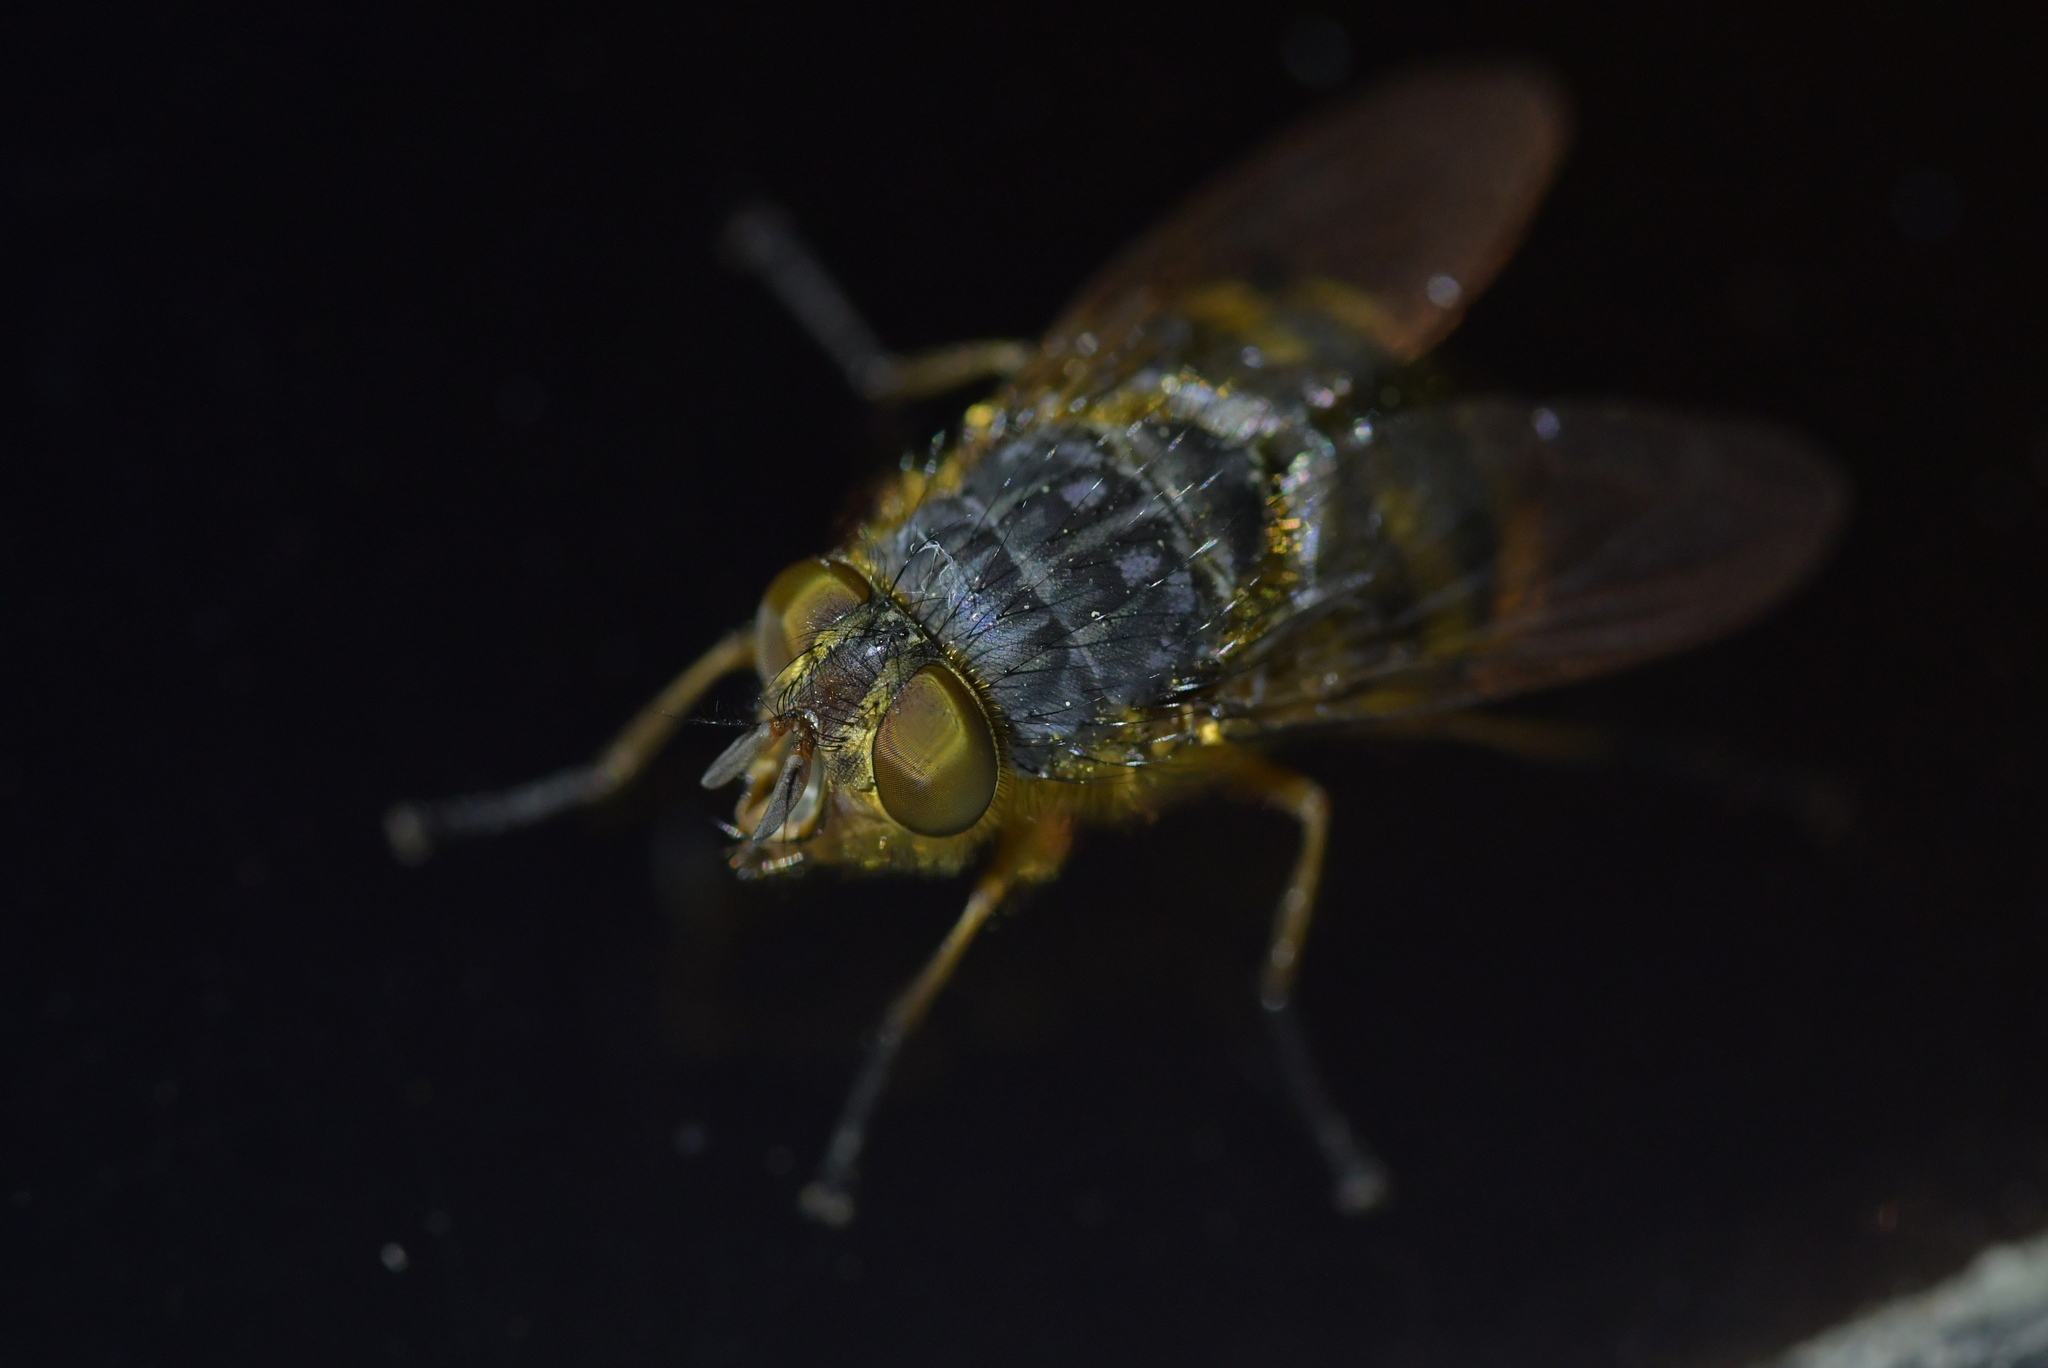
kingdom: Animalia
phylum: Arthropoda
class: Insecta
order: Diptera
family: Calliphoridae
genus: Calliphora
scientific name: Calliphora hilli
